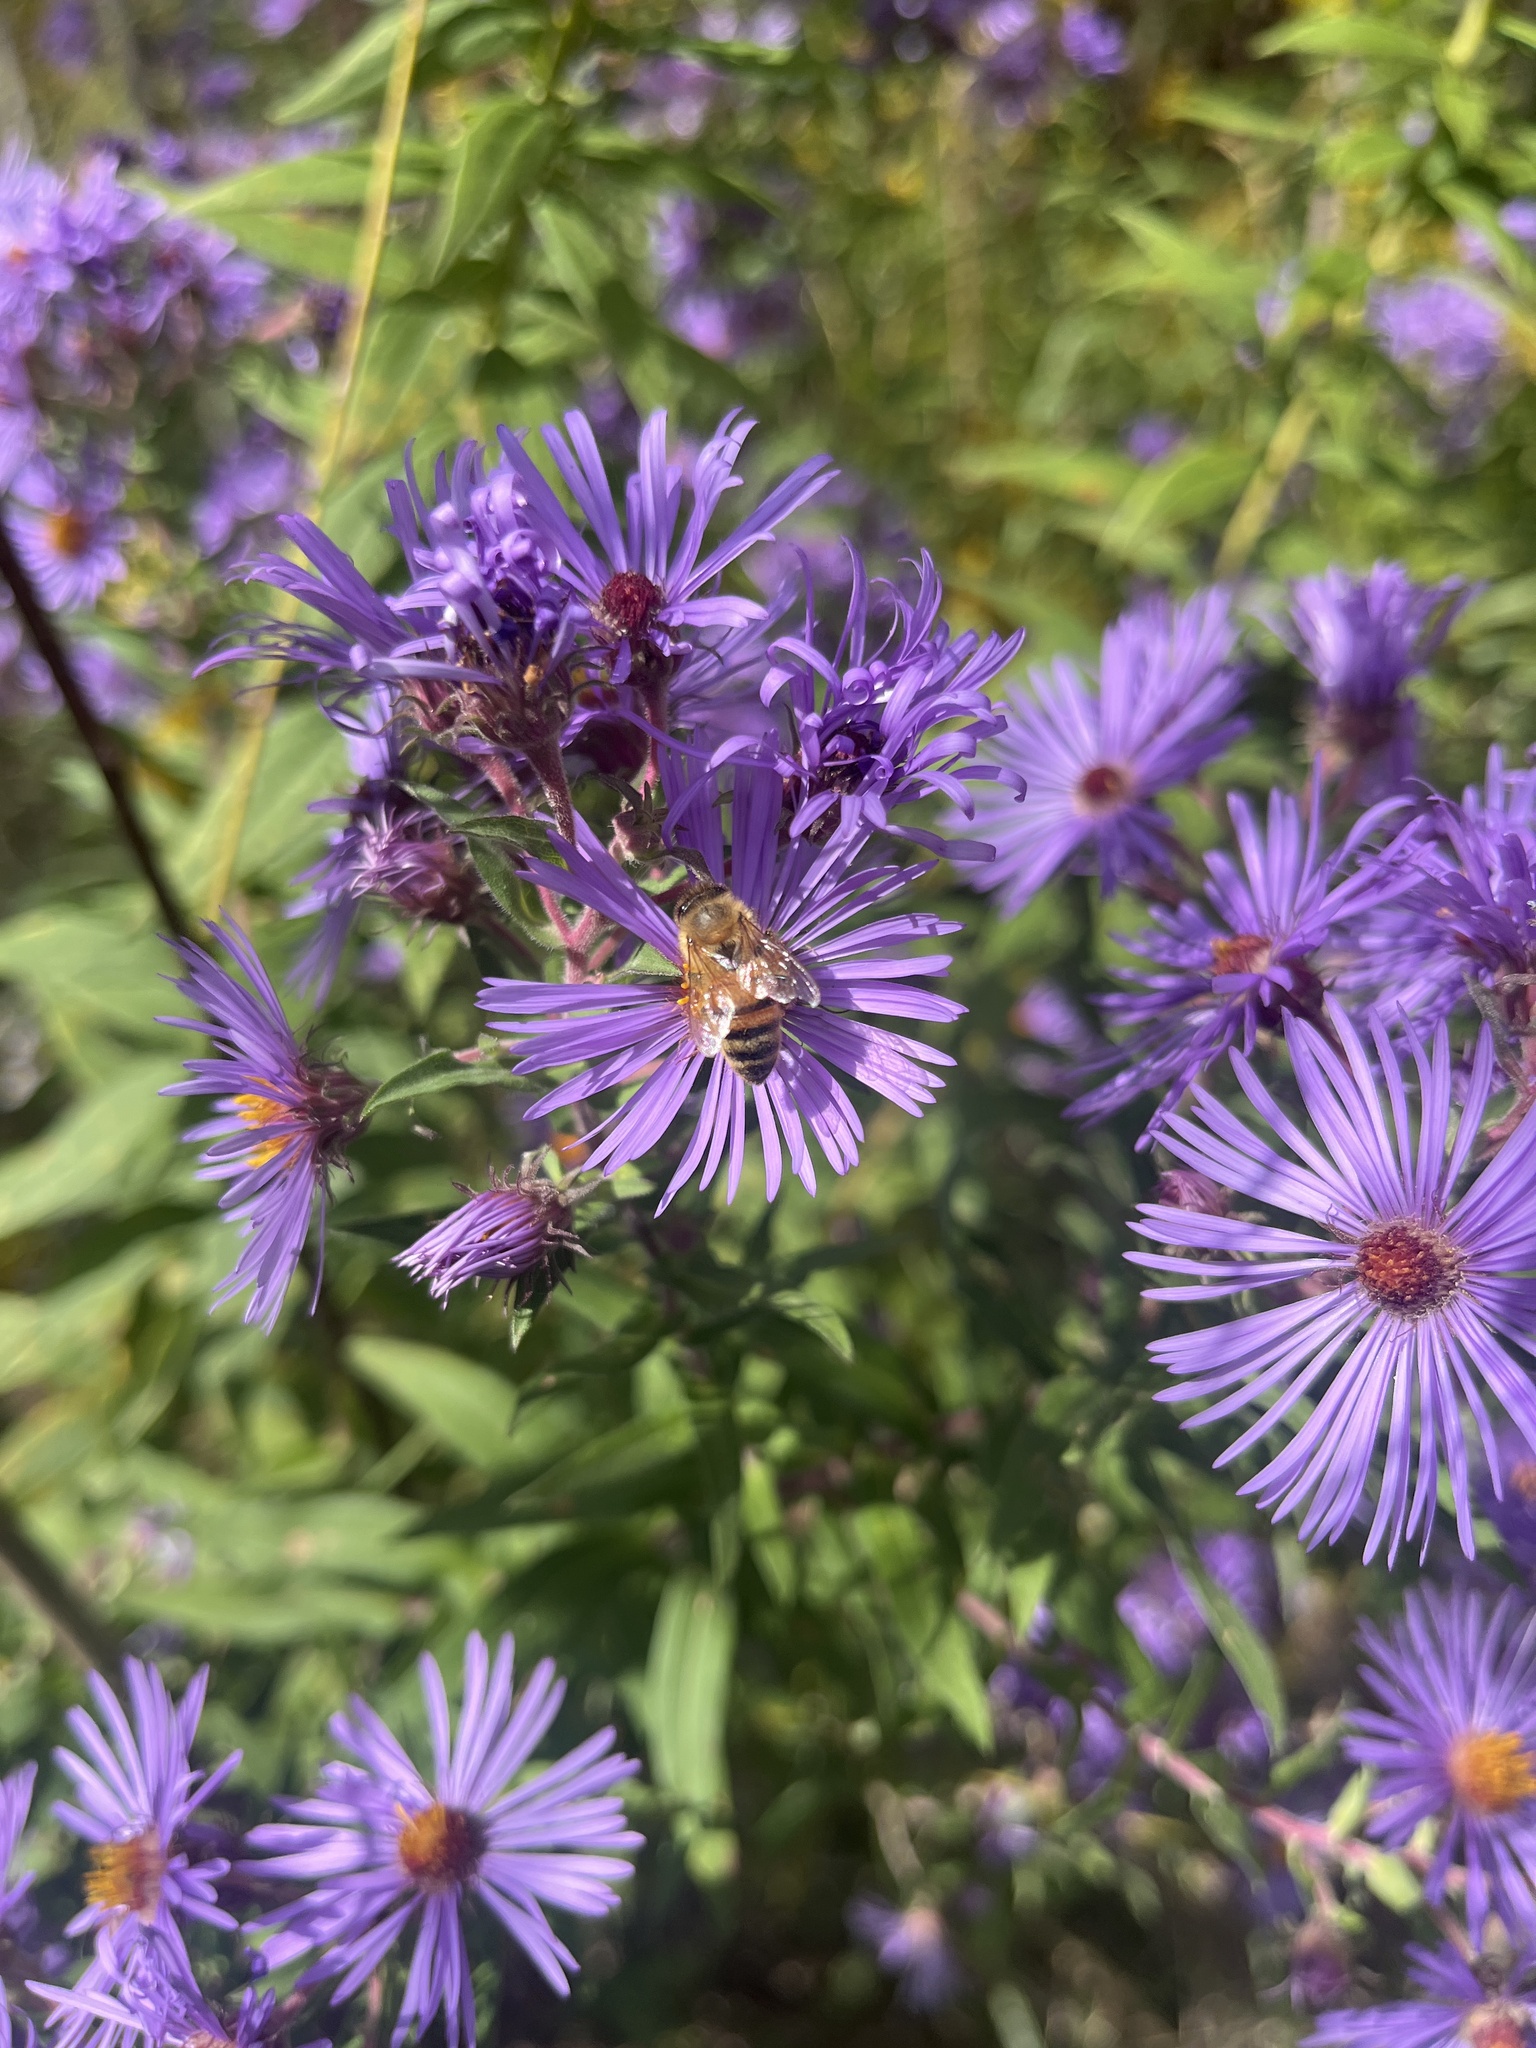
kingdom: Animalia
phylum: Arthropoda
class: Insecta
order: Hymenoptera
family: Apidae
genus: Apis
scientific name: Apis mellifera
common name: Honey bee
